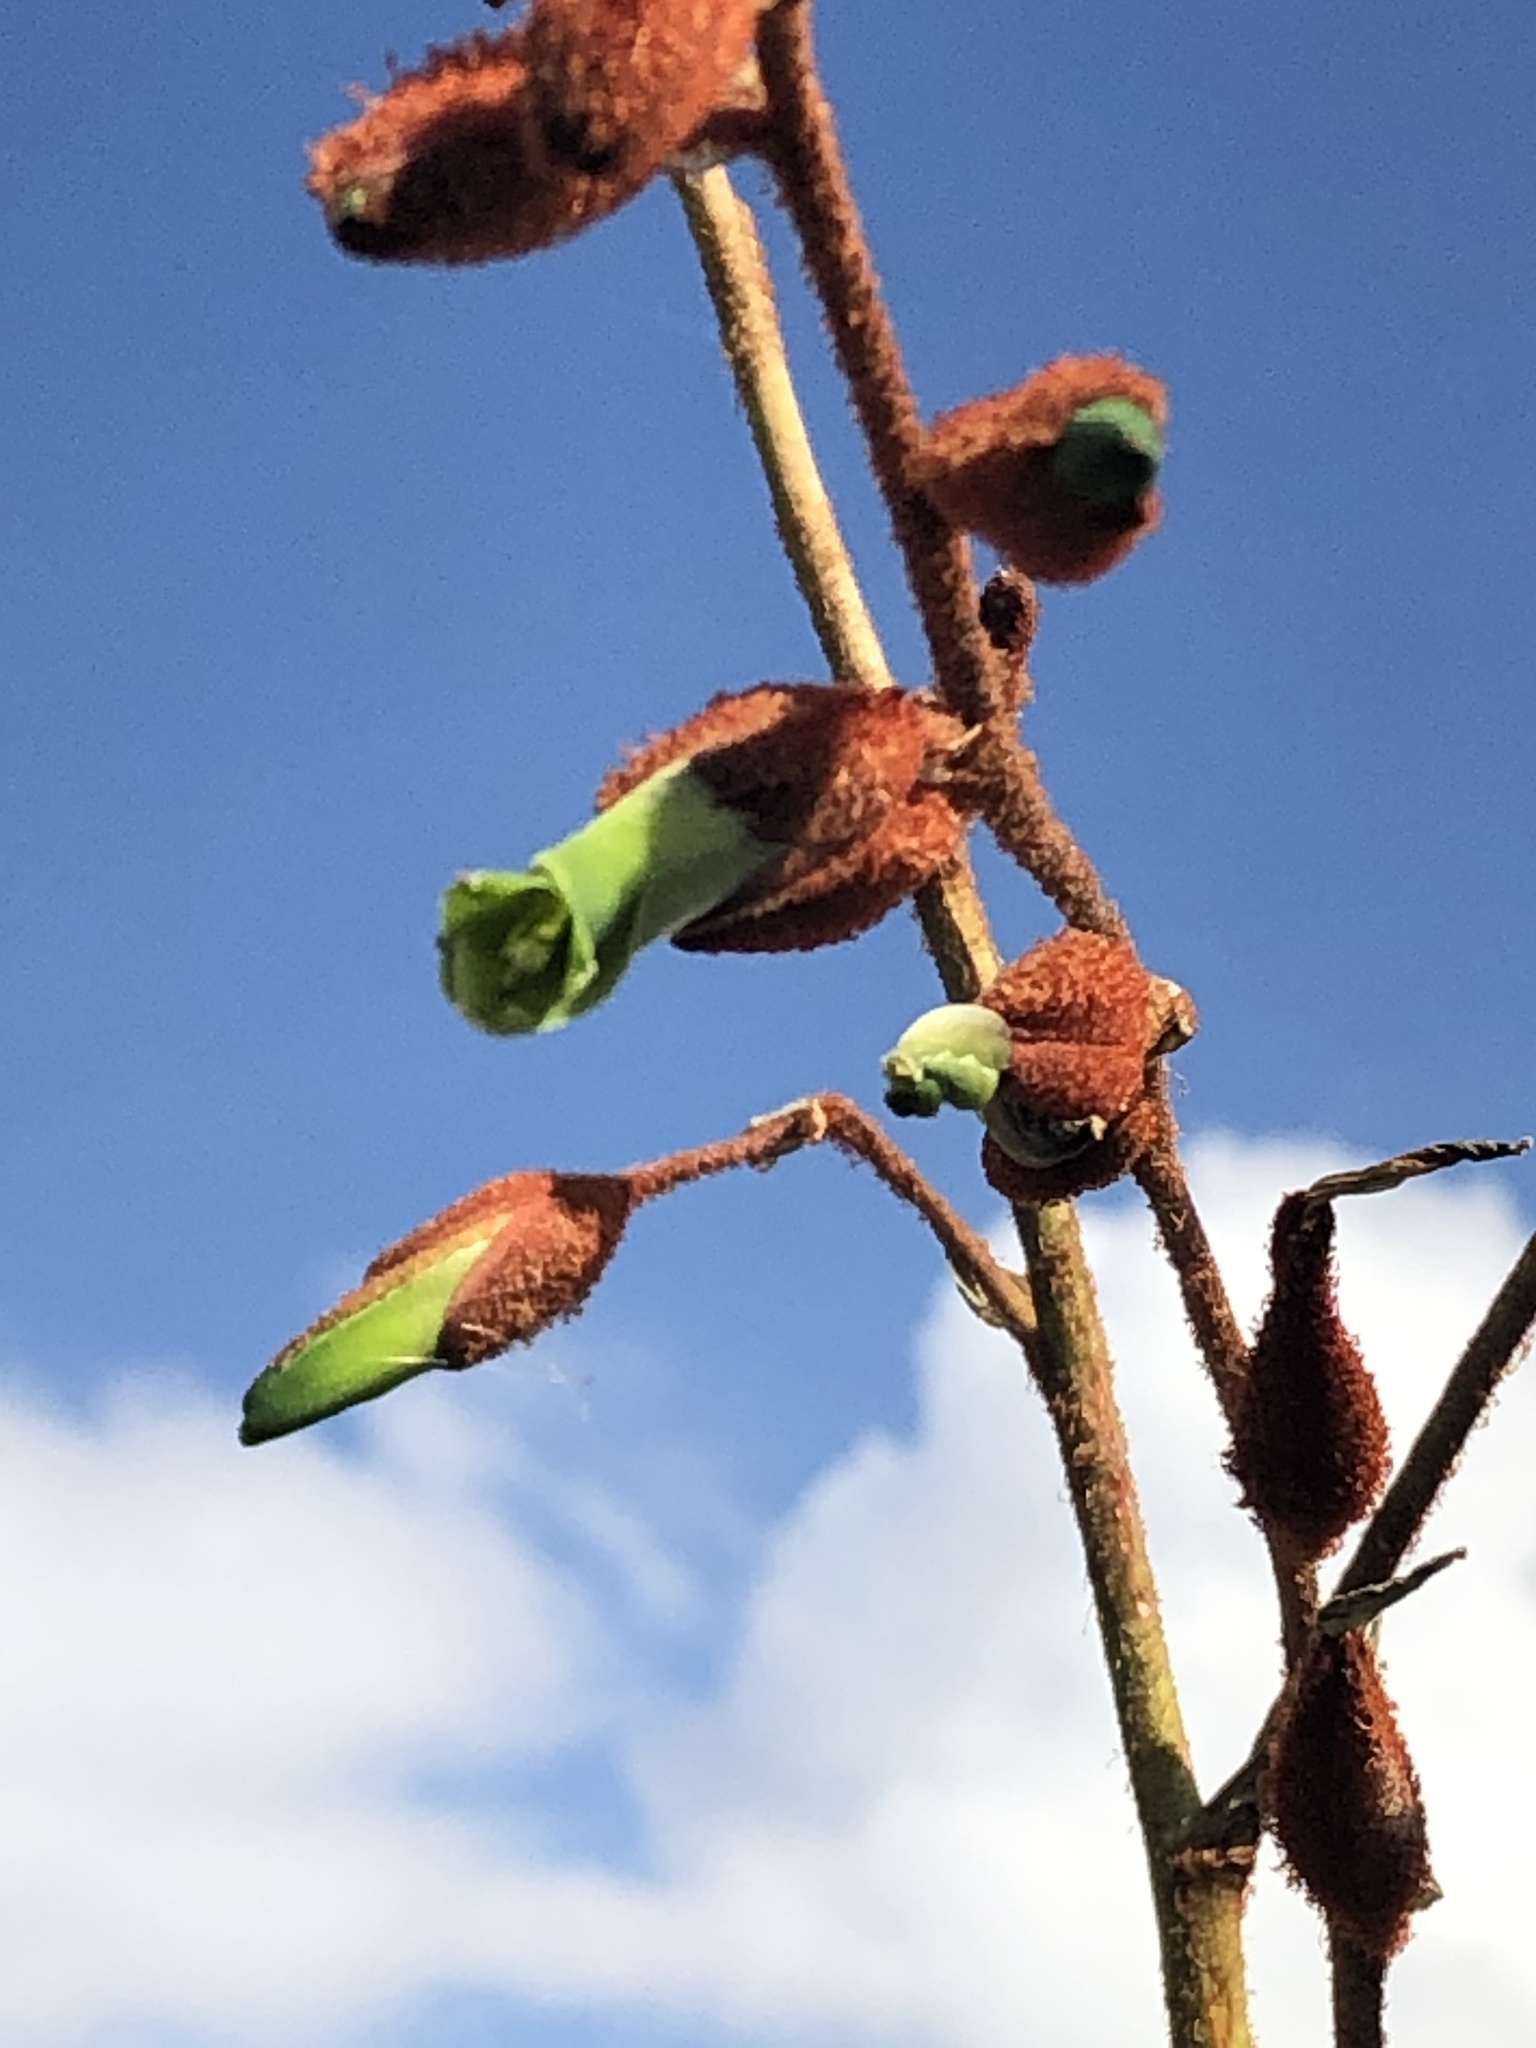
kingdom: Plantae
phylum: Tracheophyta
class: Liliopsida
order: Poales
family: Bromeliaceae
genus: Puya
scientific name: Puya ferruginea
